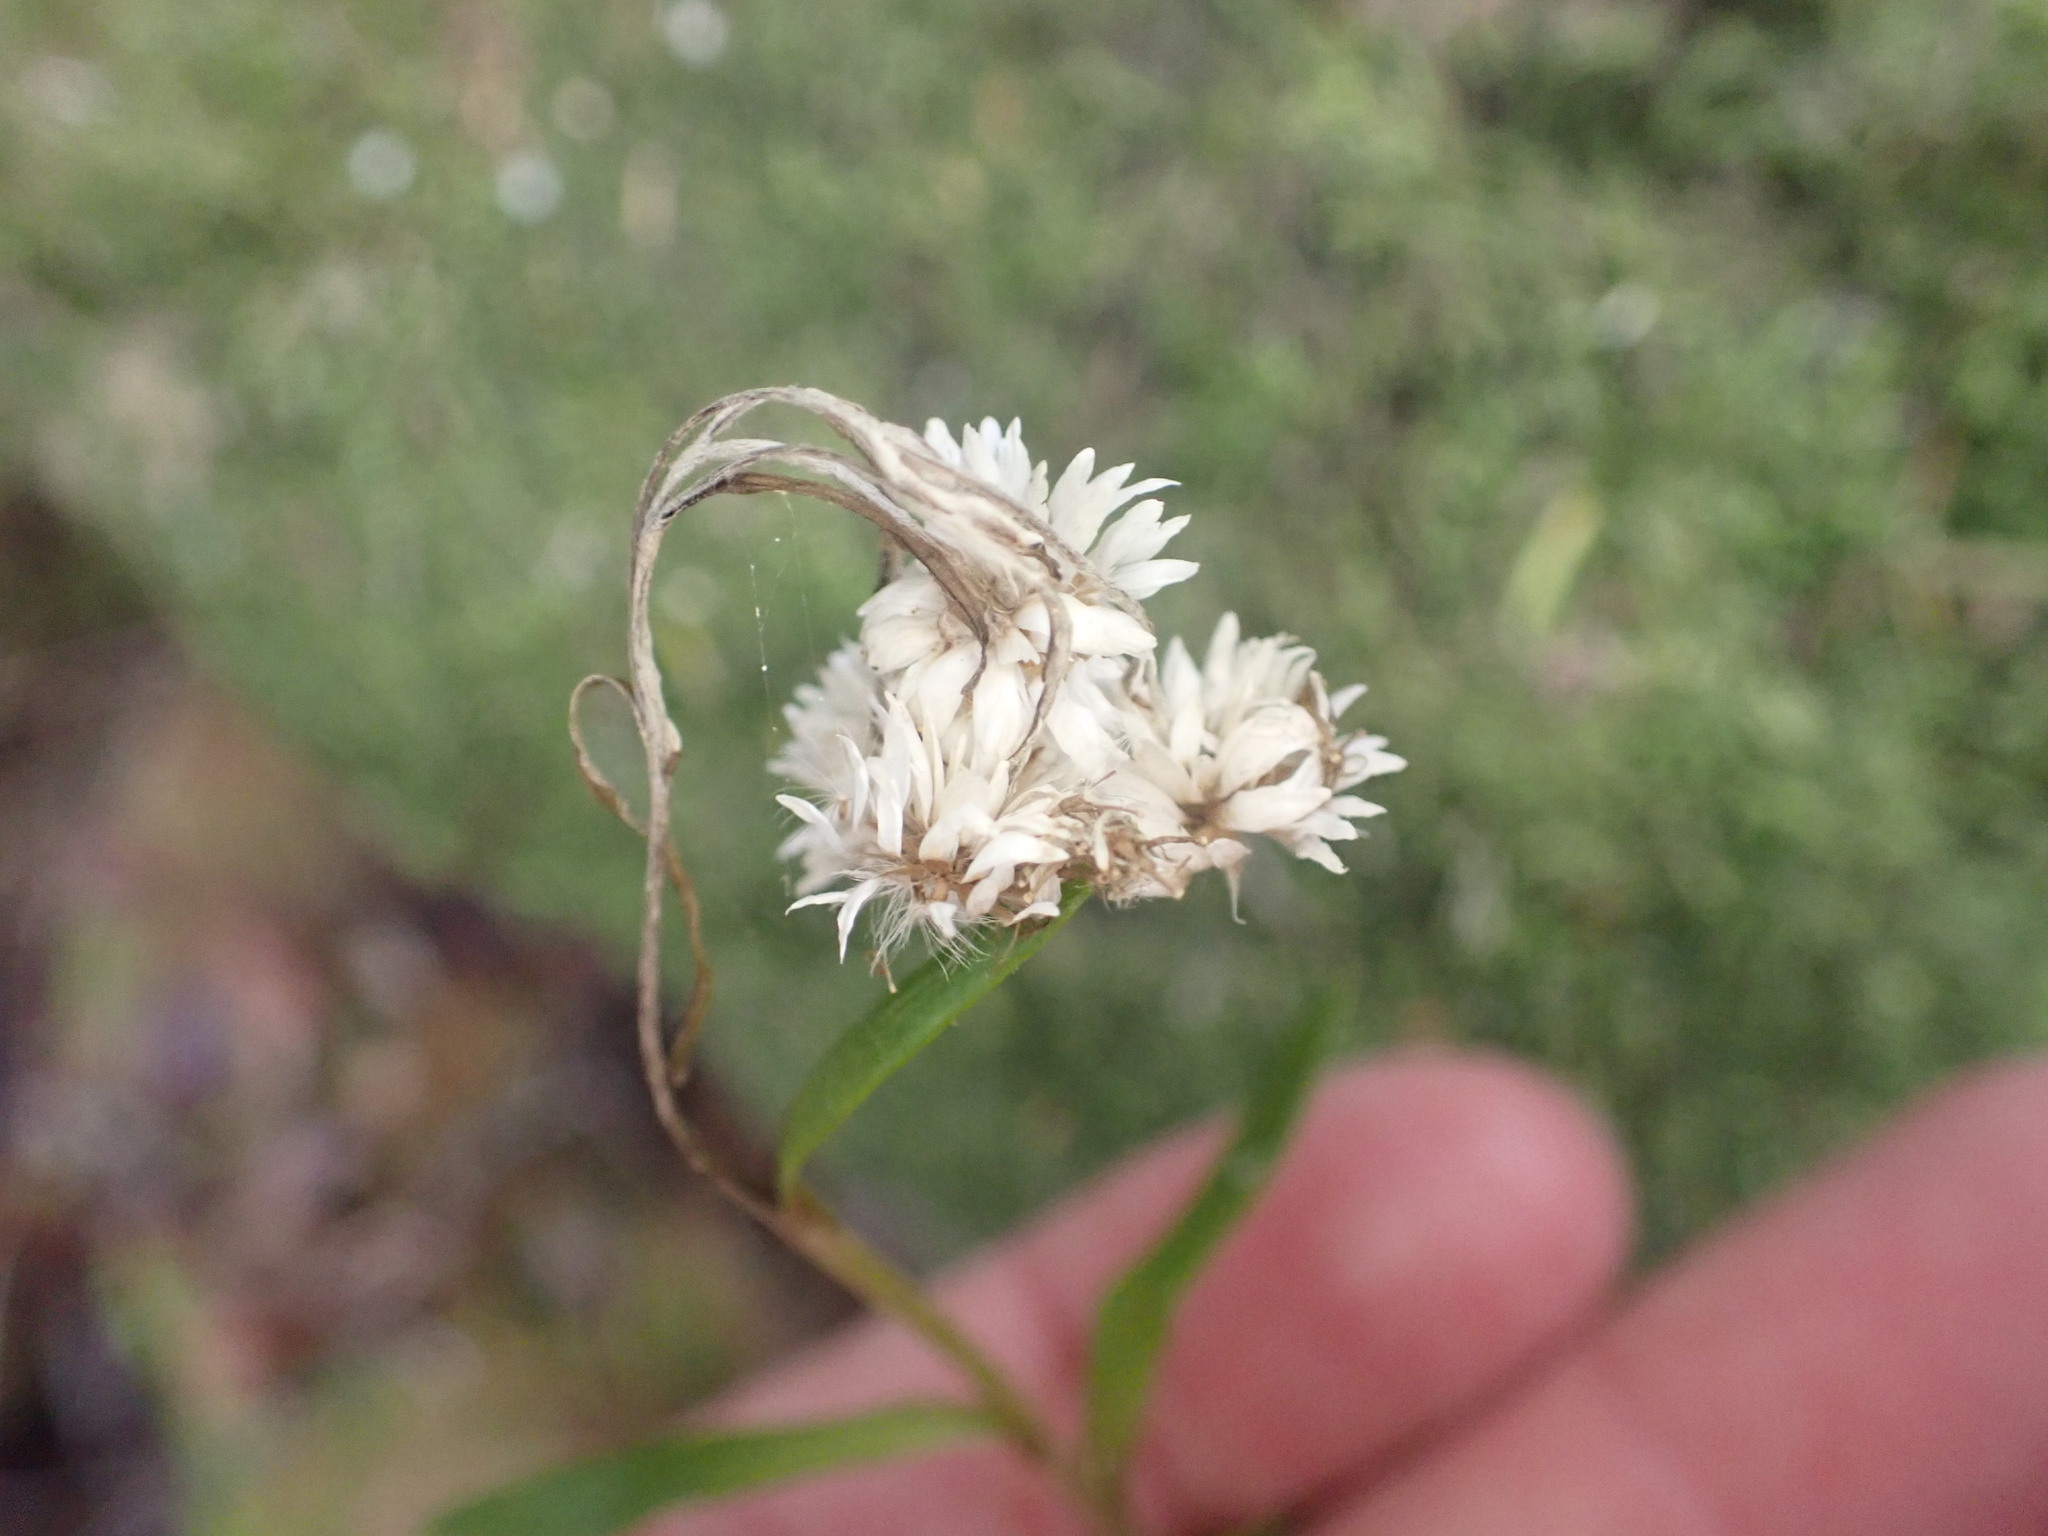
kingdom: Plantae
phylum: Tracheophyta
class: Magnoliopsida
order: Asterales
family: Asteraceae
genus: Anaphalioides
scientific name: Anaphalioides trinervis
